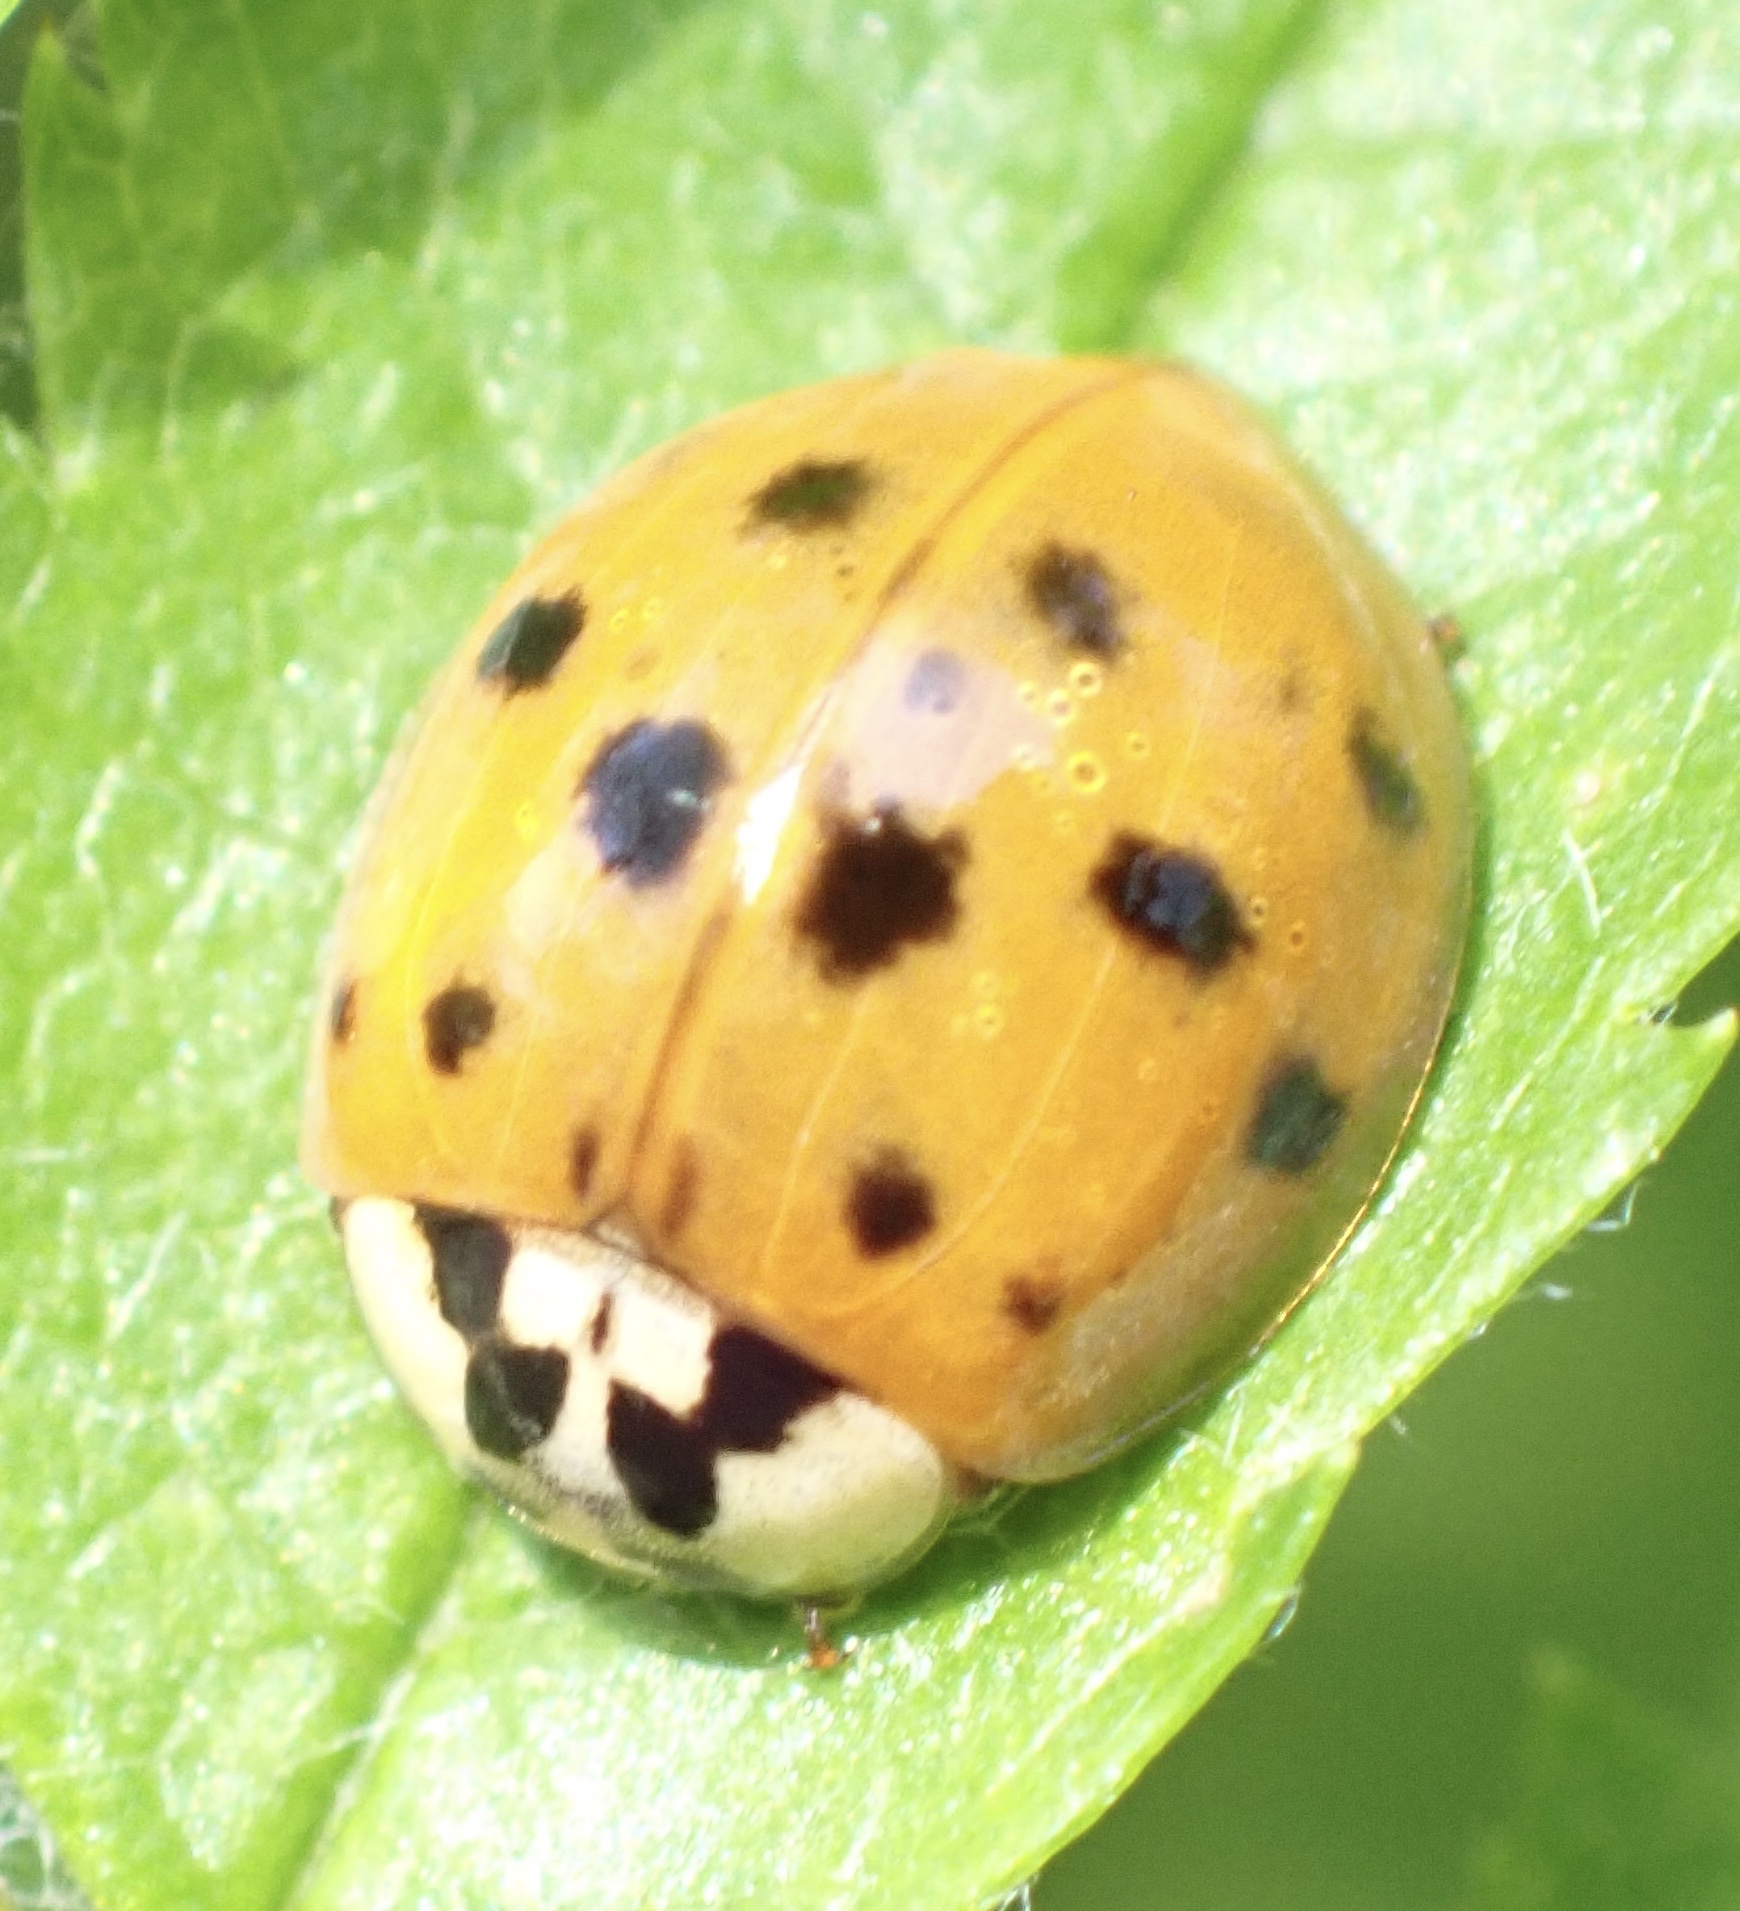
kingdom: Animalia
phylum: Arthropoda
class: Insecta
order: Coleoptera
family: Coccinellidae
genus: Harmonia
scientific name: Harmonia axyridis
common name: Harlequin ladybird
